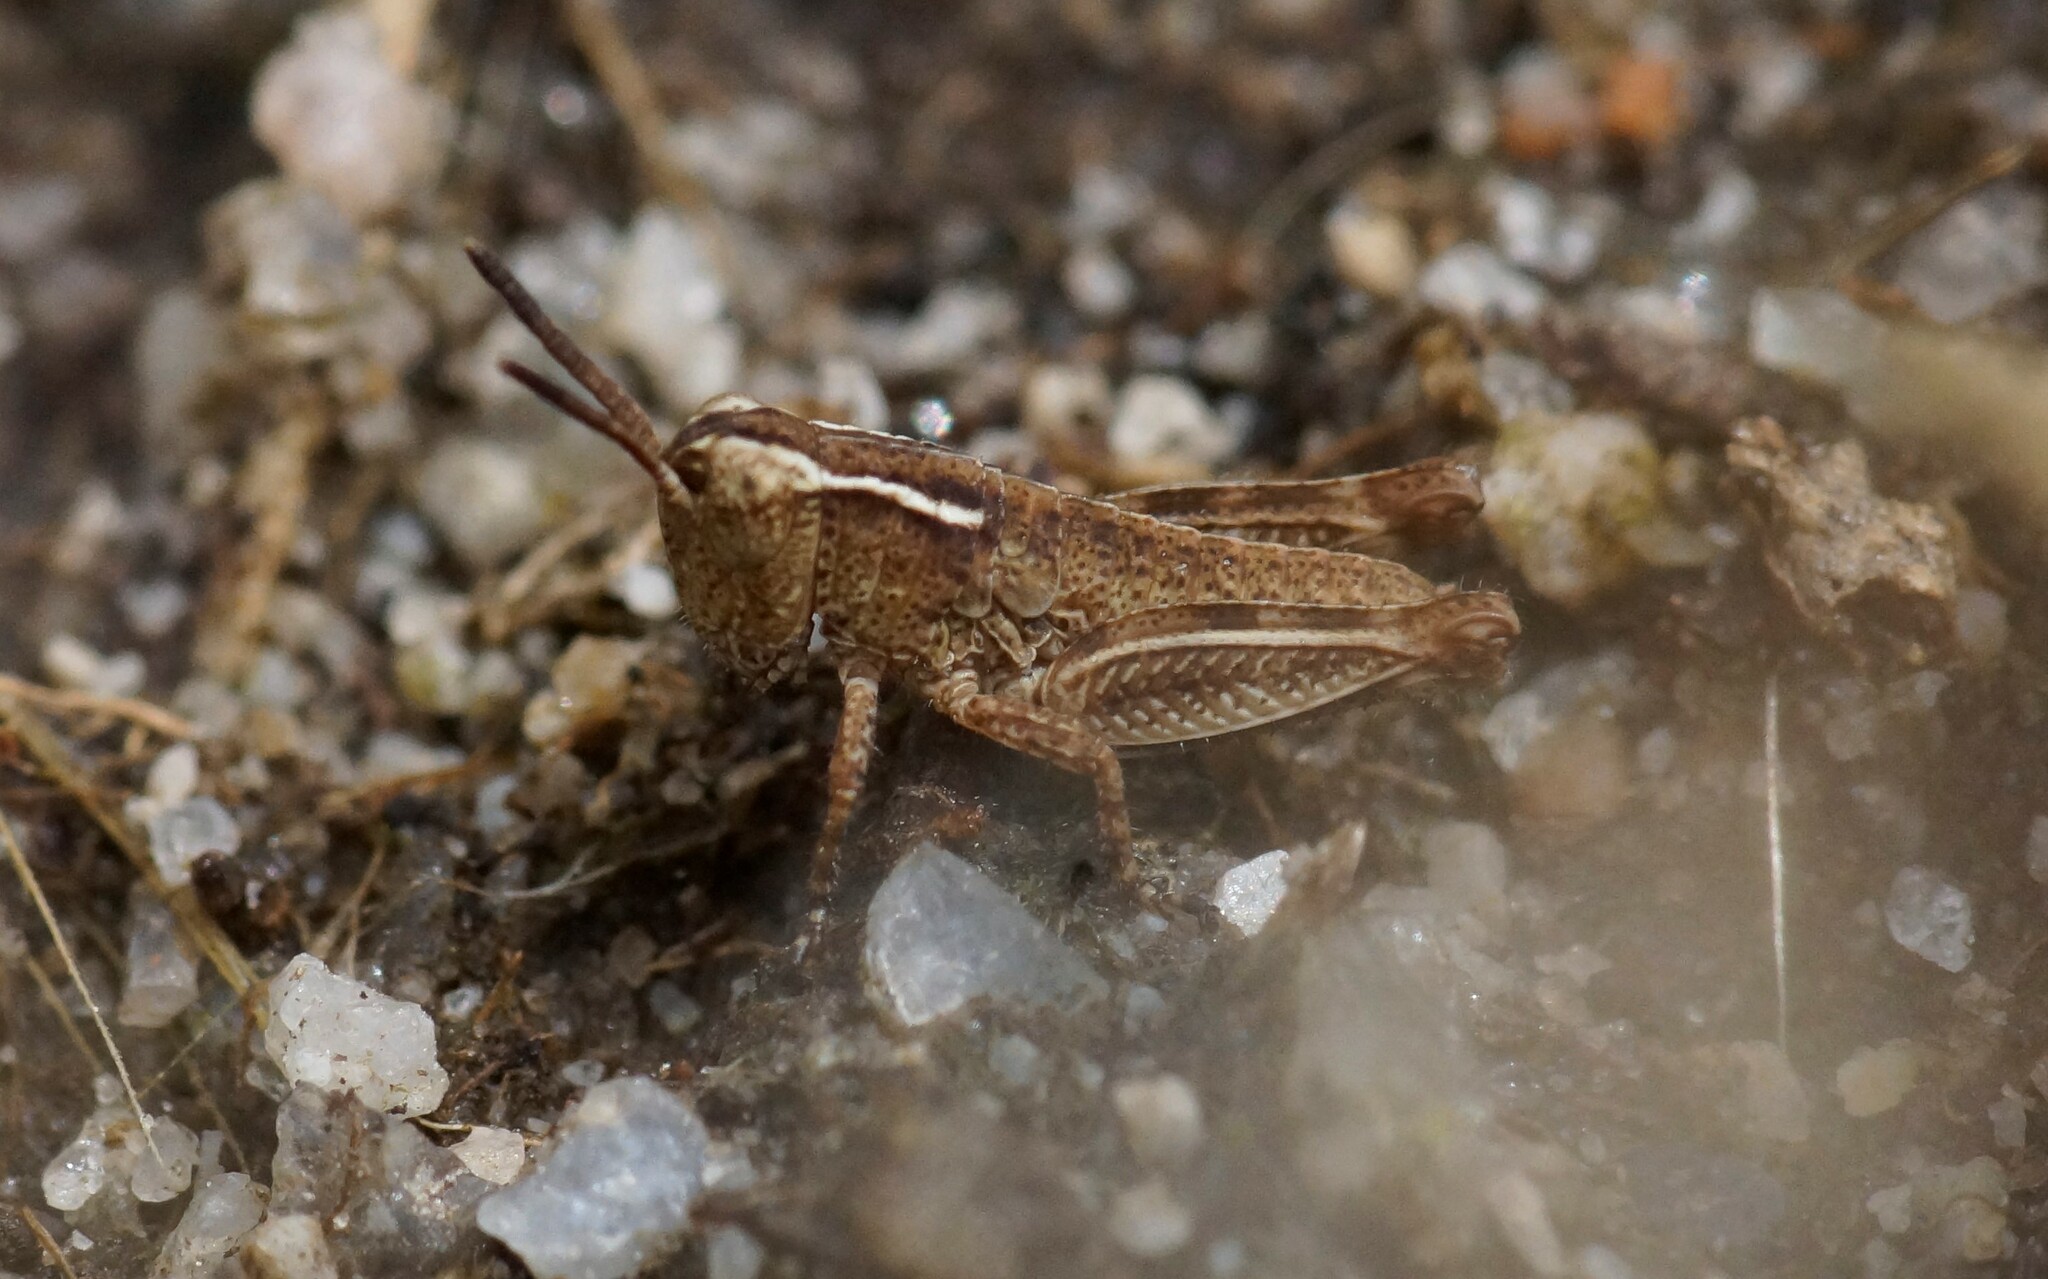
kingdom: Animalia
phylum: Arthropoda
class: Insecta
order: Orthoptera
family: Acrididae
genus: Phaulacridium
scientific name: Phaulacridium vittatum
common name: Wingless grasshopper
